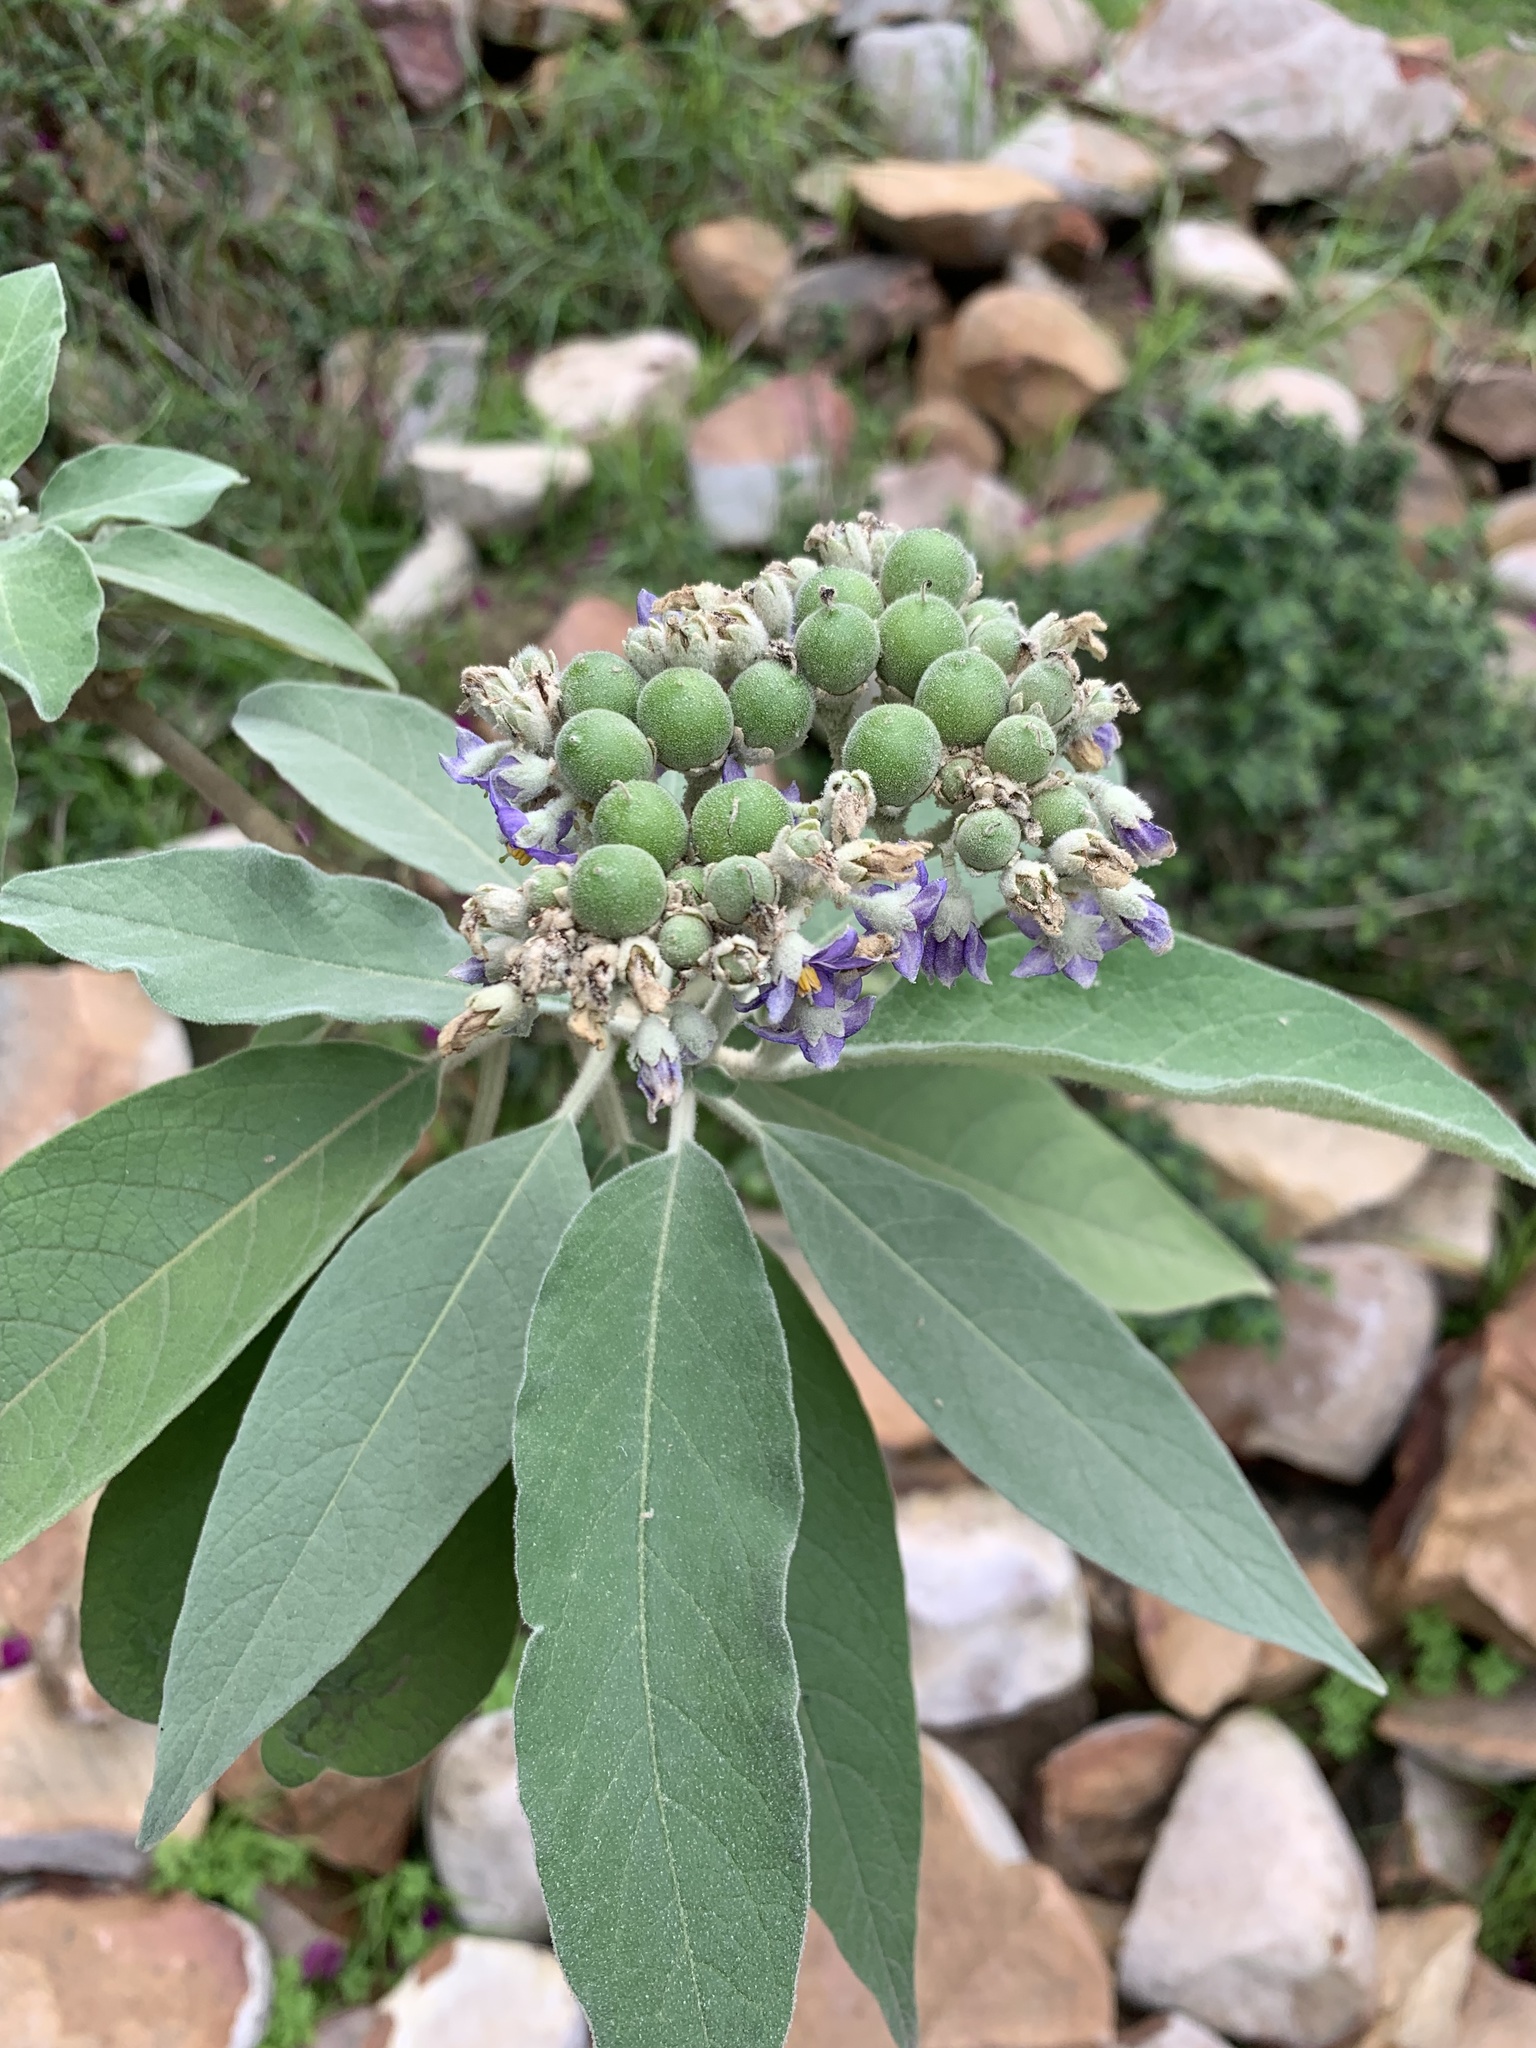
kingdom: Plantae
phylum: Tracheophyta
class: Magnoliopsida
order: Solanales
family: Solanaceae
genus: Solanum
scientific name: Solanum mauritianum
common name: Earleaf nightshade
